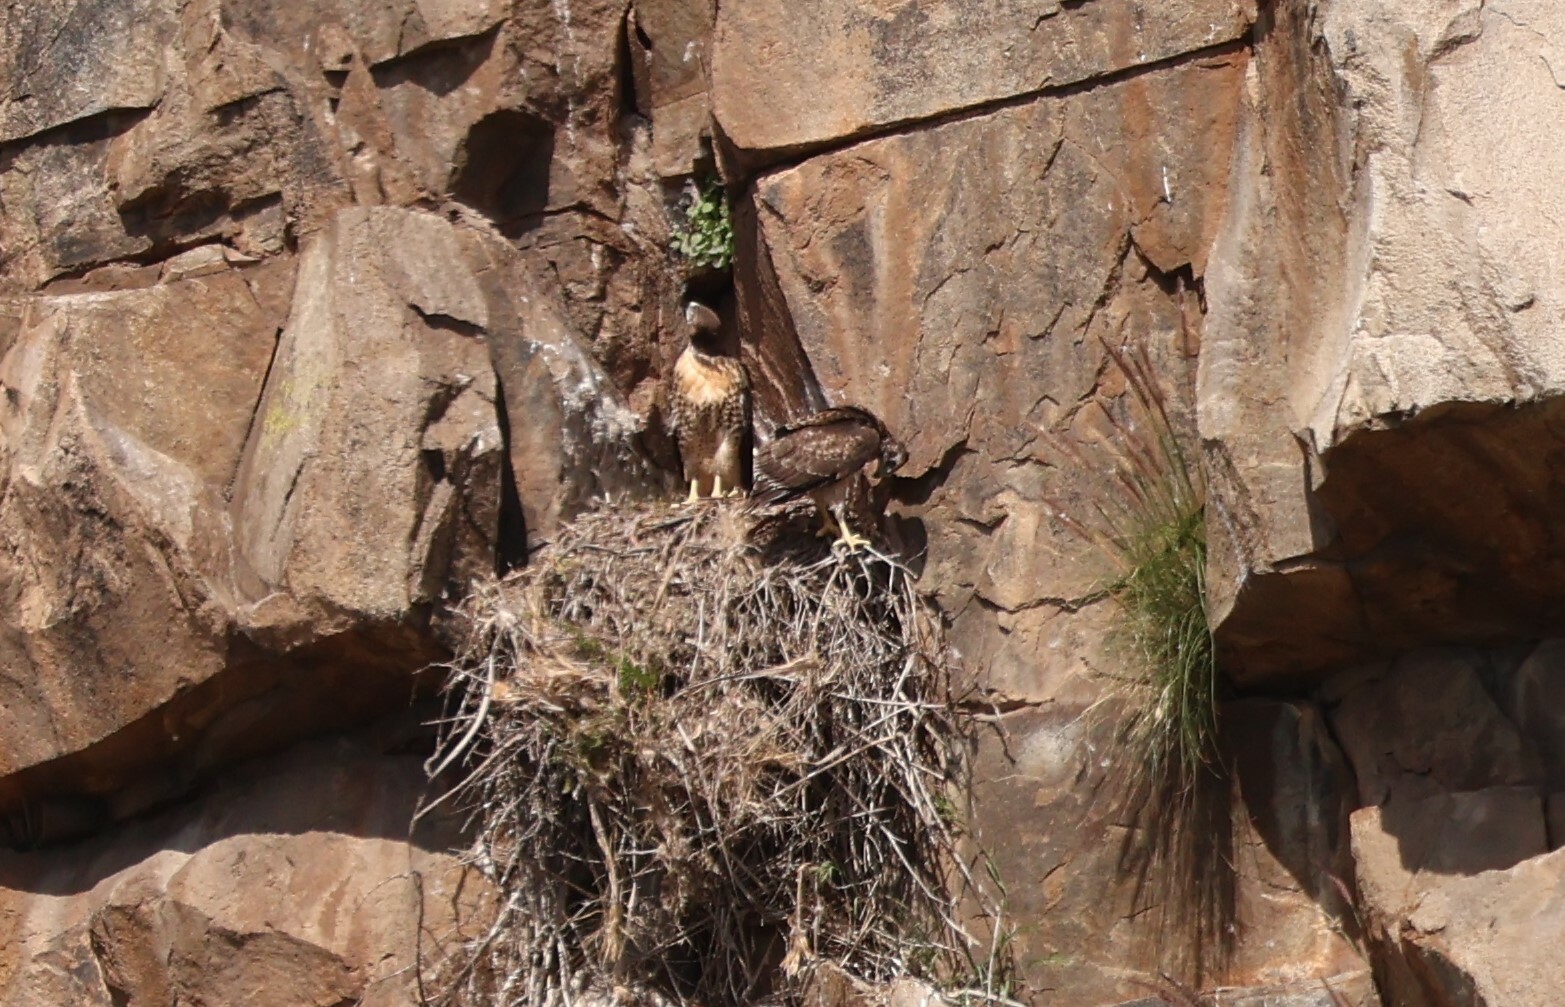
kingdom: Animalia
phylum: Chordata
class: Aves
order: Accipitriformes
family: Accipitridae
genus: Buteo
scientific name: Buteo jamaicensis
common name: Red-tailed hawk
